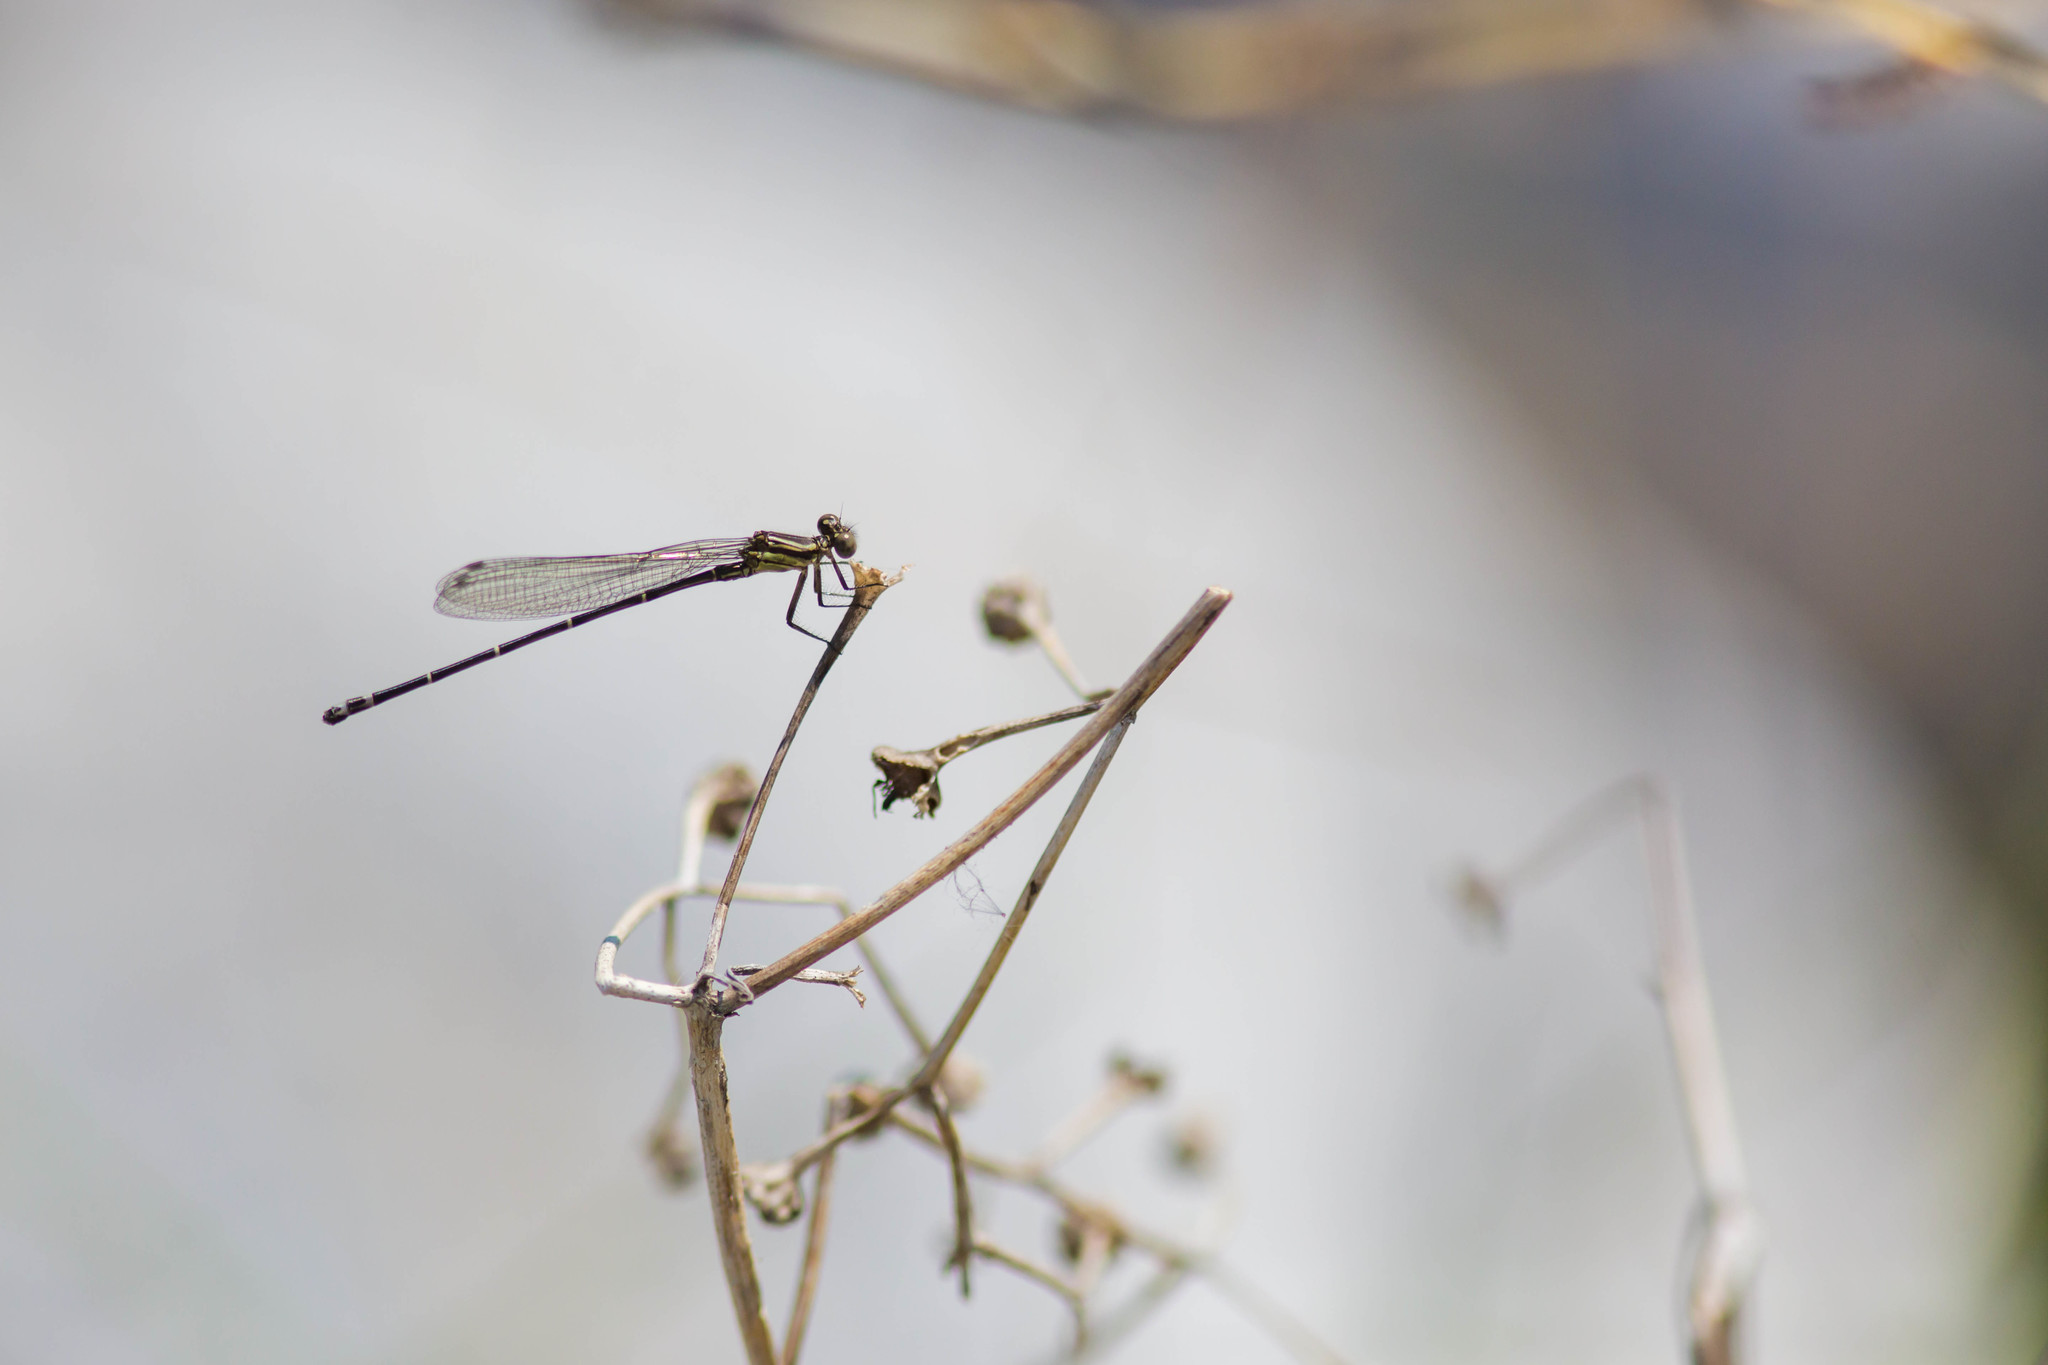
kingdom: Animalia
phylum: Arthropoda
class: Insecta
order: Odonata
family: Coenagrionidae
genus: Argia
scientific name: Argia translata
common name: Dusky dancer
